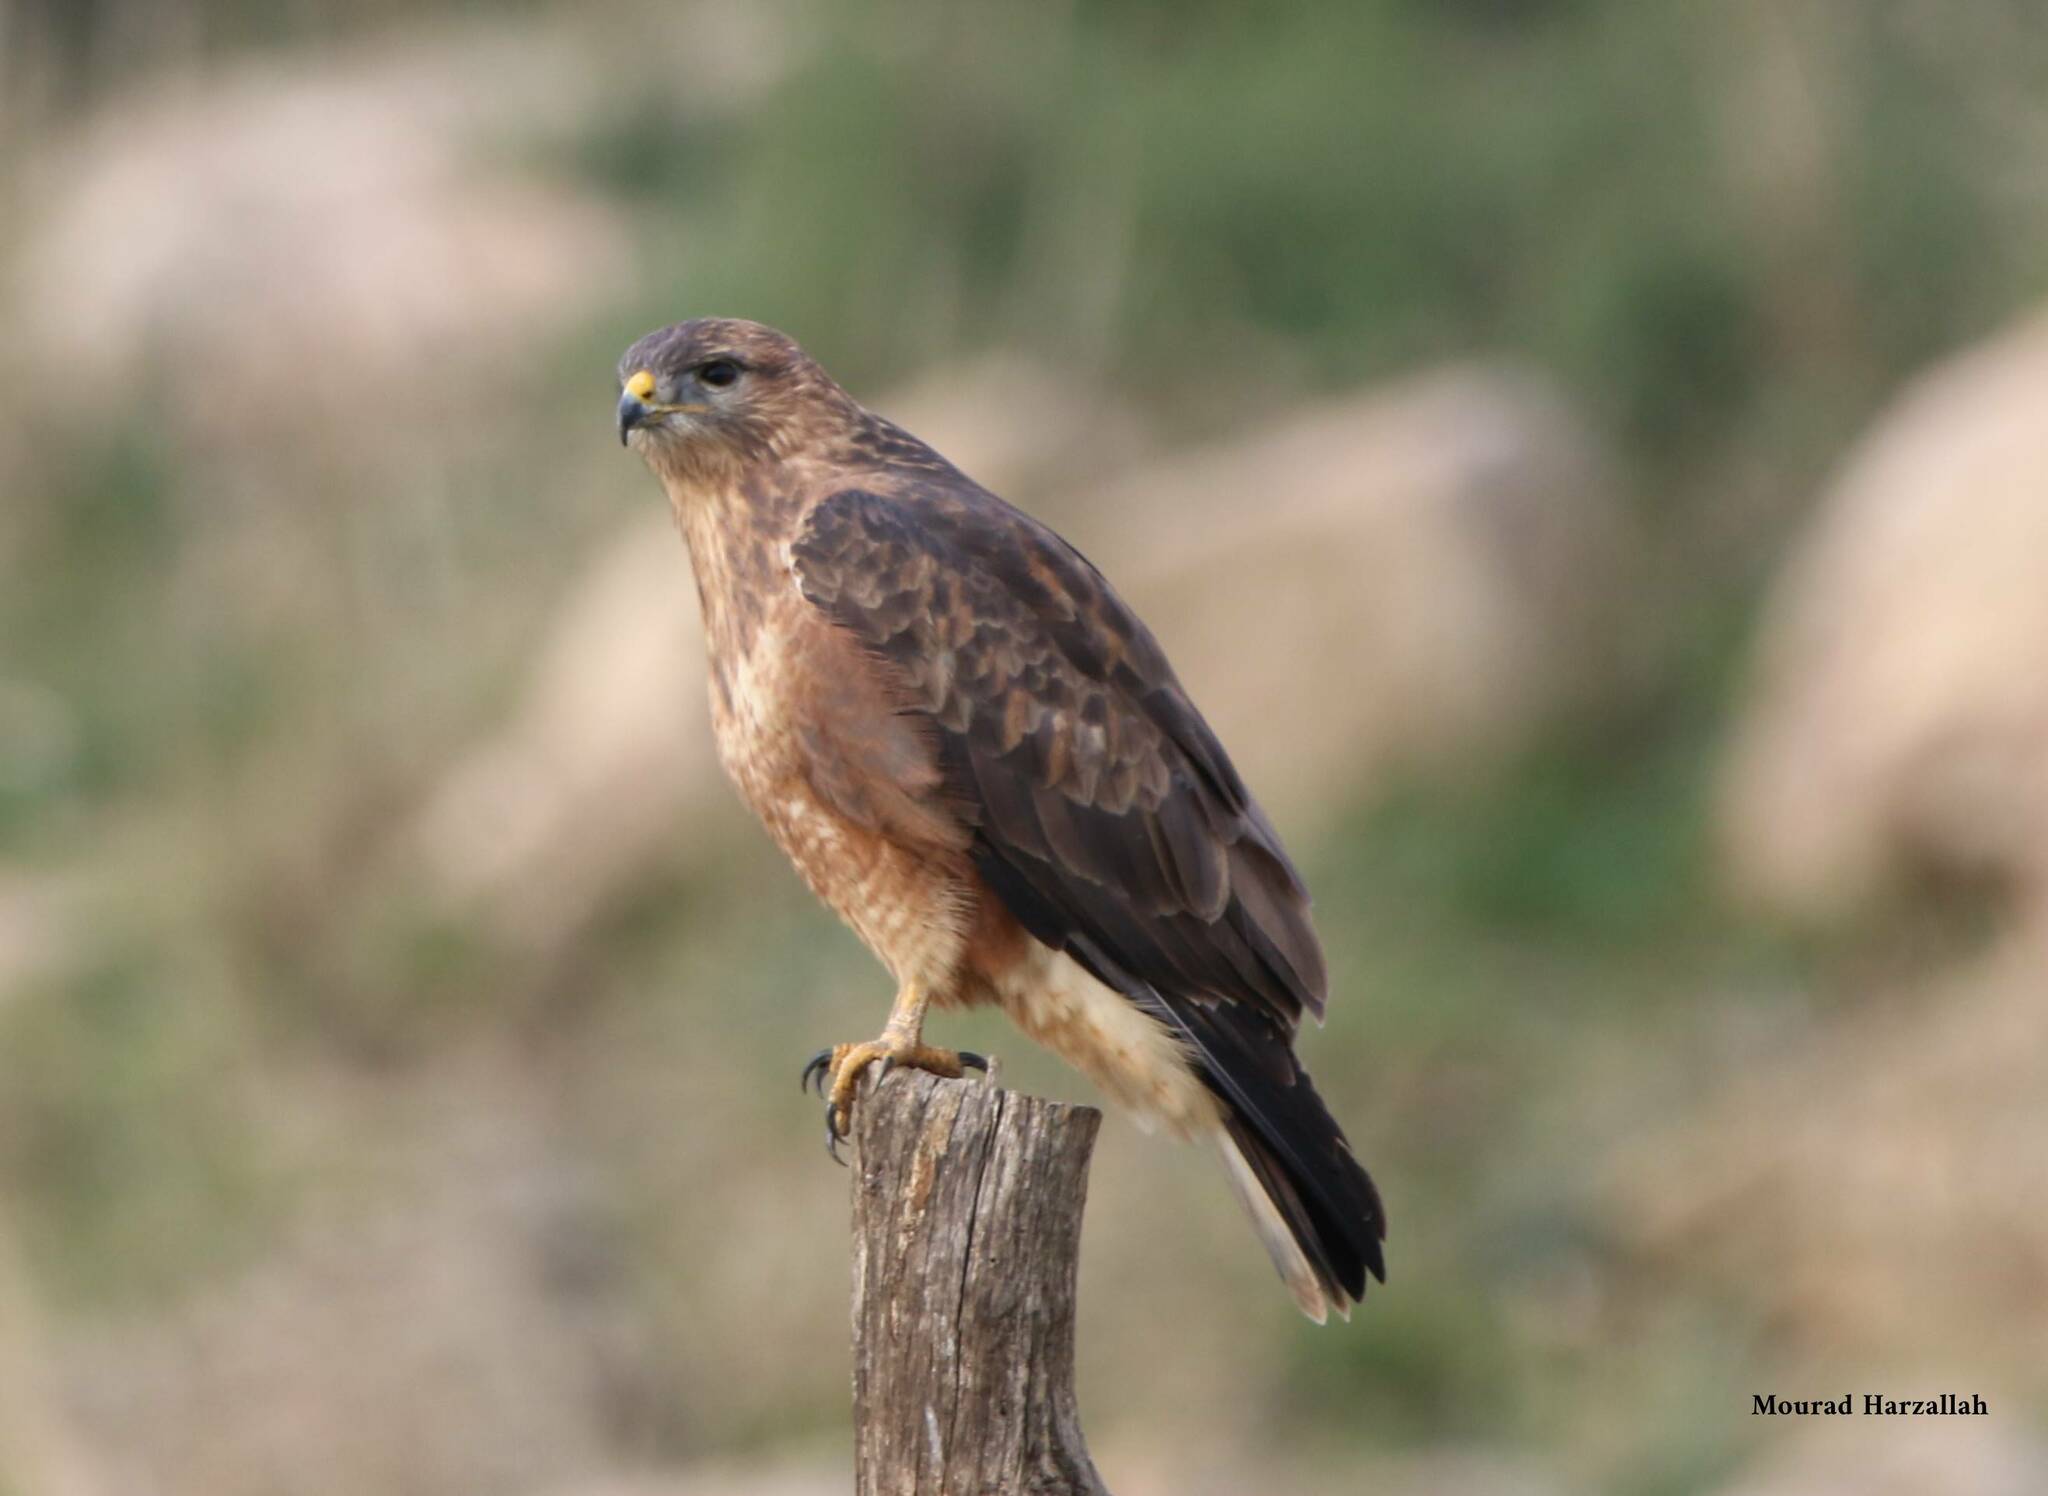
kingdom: Animalia
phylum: Chordata
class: Aves
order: Accipitriformes
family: Accipitridae
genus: Buteo
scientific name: Buteo rufinus
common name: Long-legged buzzard
